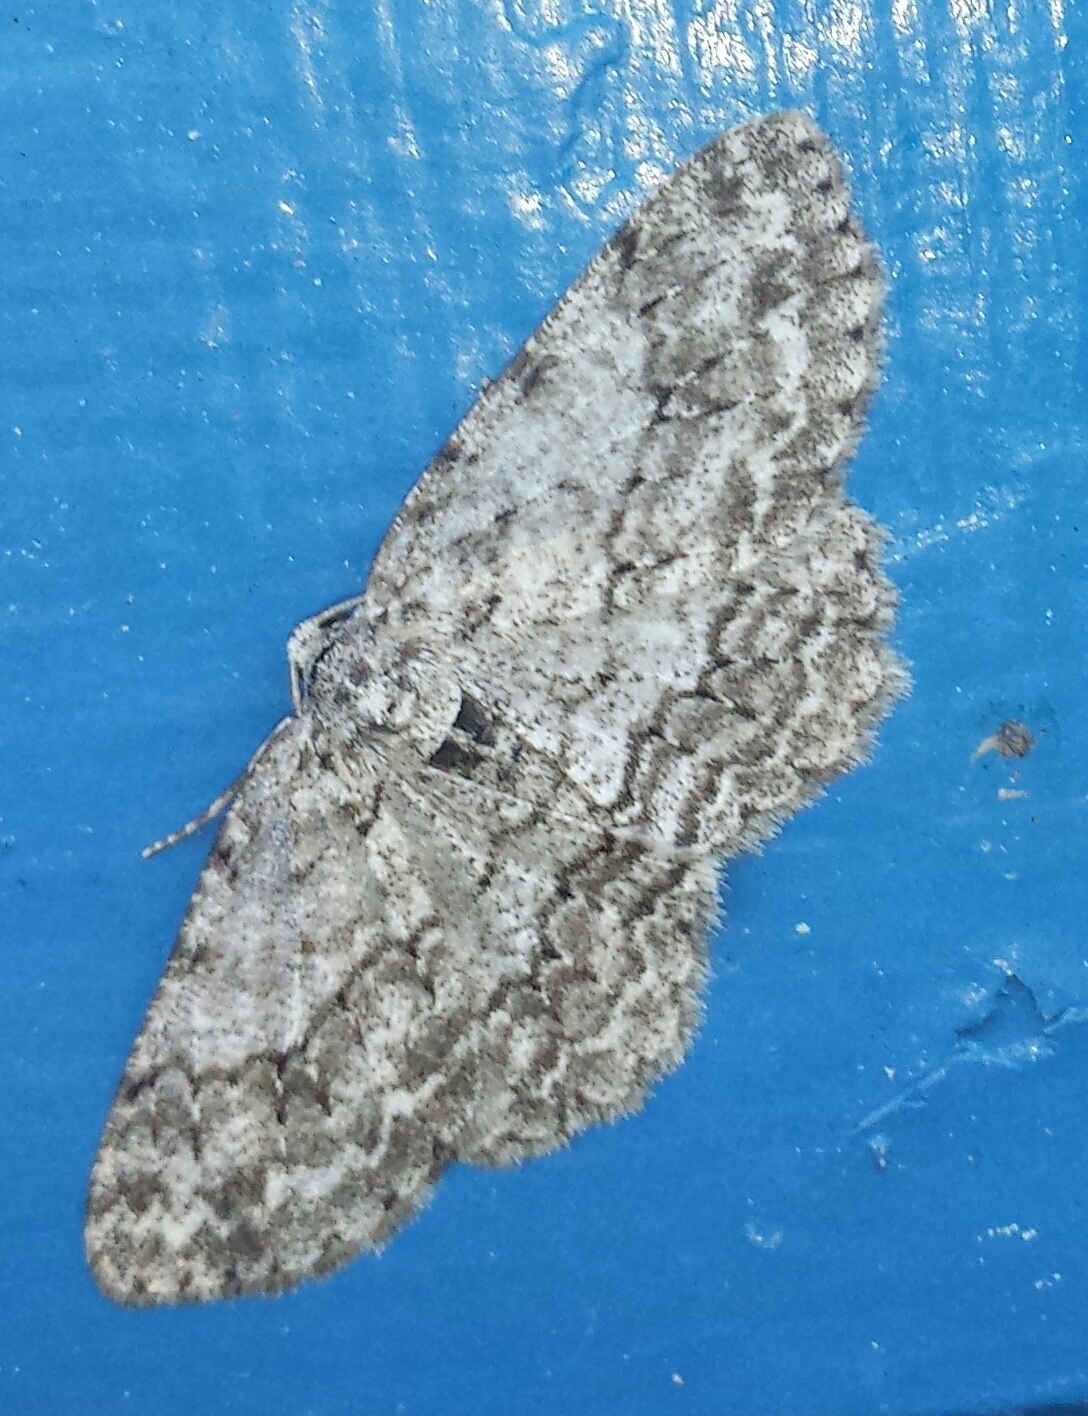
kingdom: Animalia
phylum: Arthropoda
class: Insecta
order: Lepidoptera
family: Geometridae
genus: Ectropis
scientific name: Ectropis crepuscularia
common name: Engrailed
